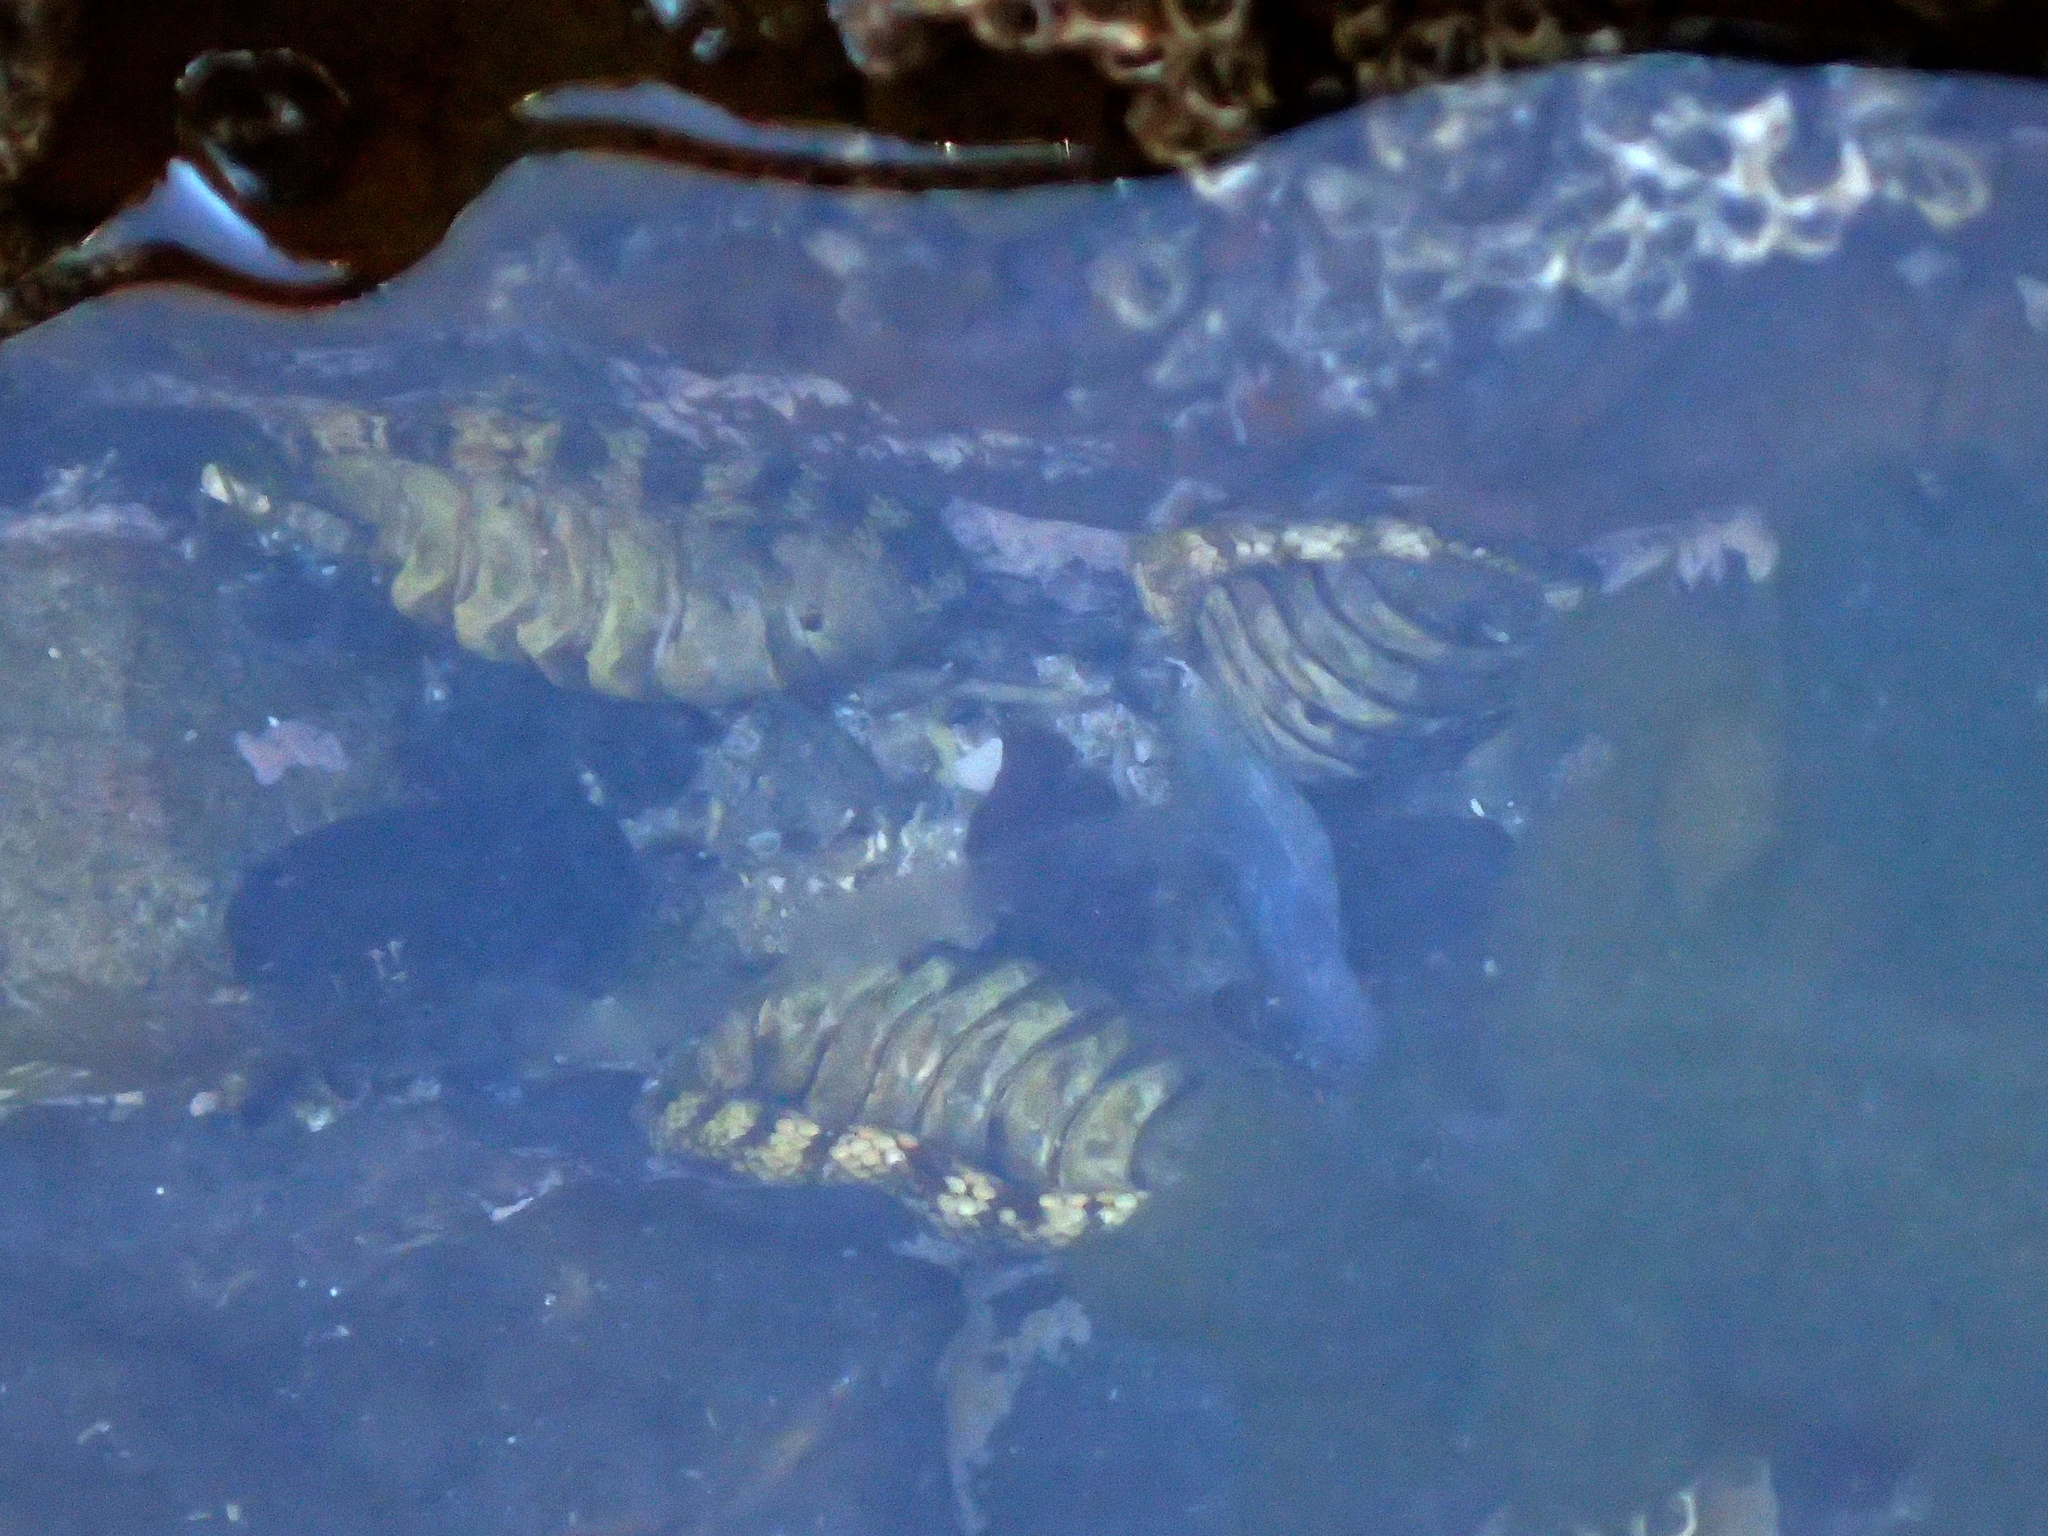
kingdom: Animalia
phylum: Mollusca
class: Polyplacophora
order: Chitonida
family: Chitonidae
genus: Sypharochiton
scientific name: Sypharochiton pelliserpentis
